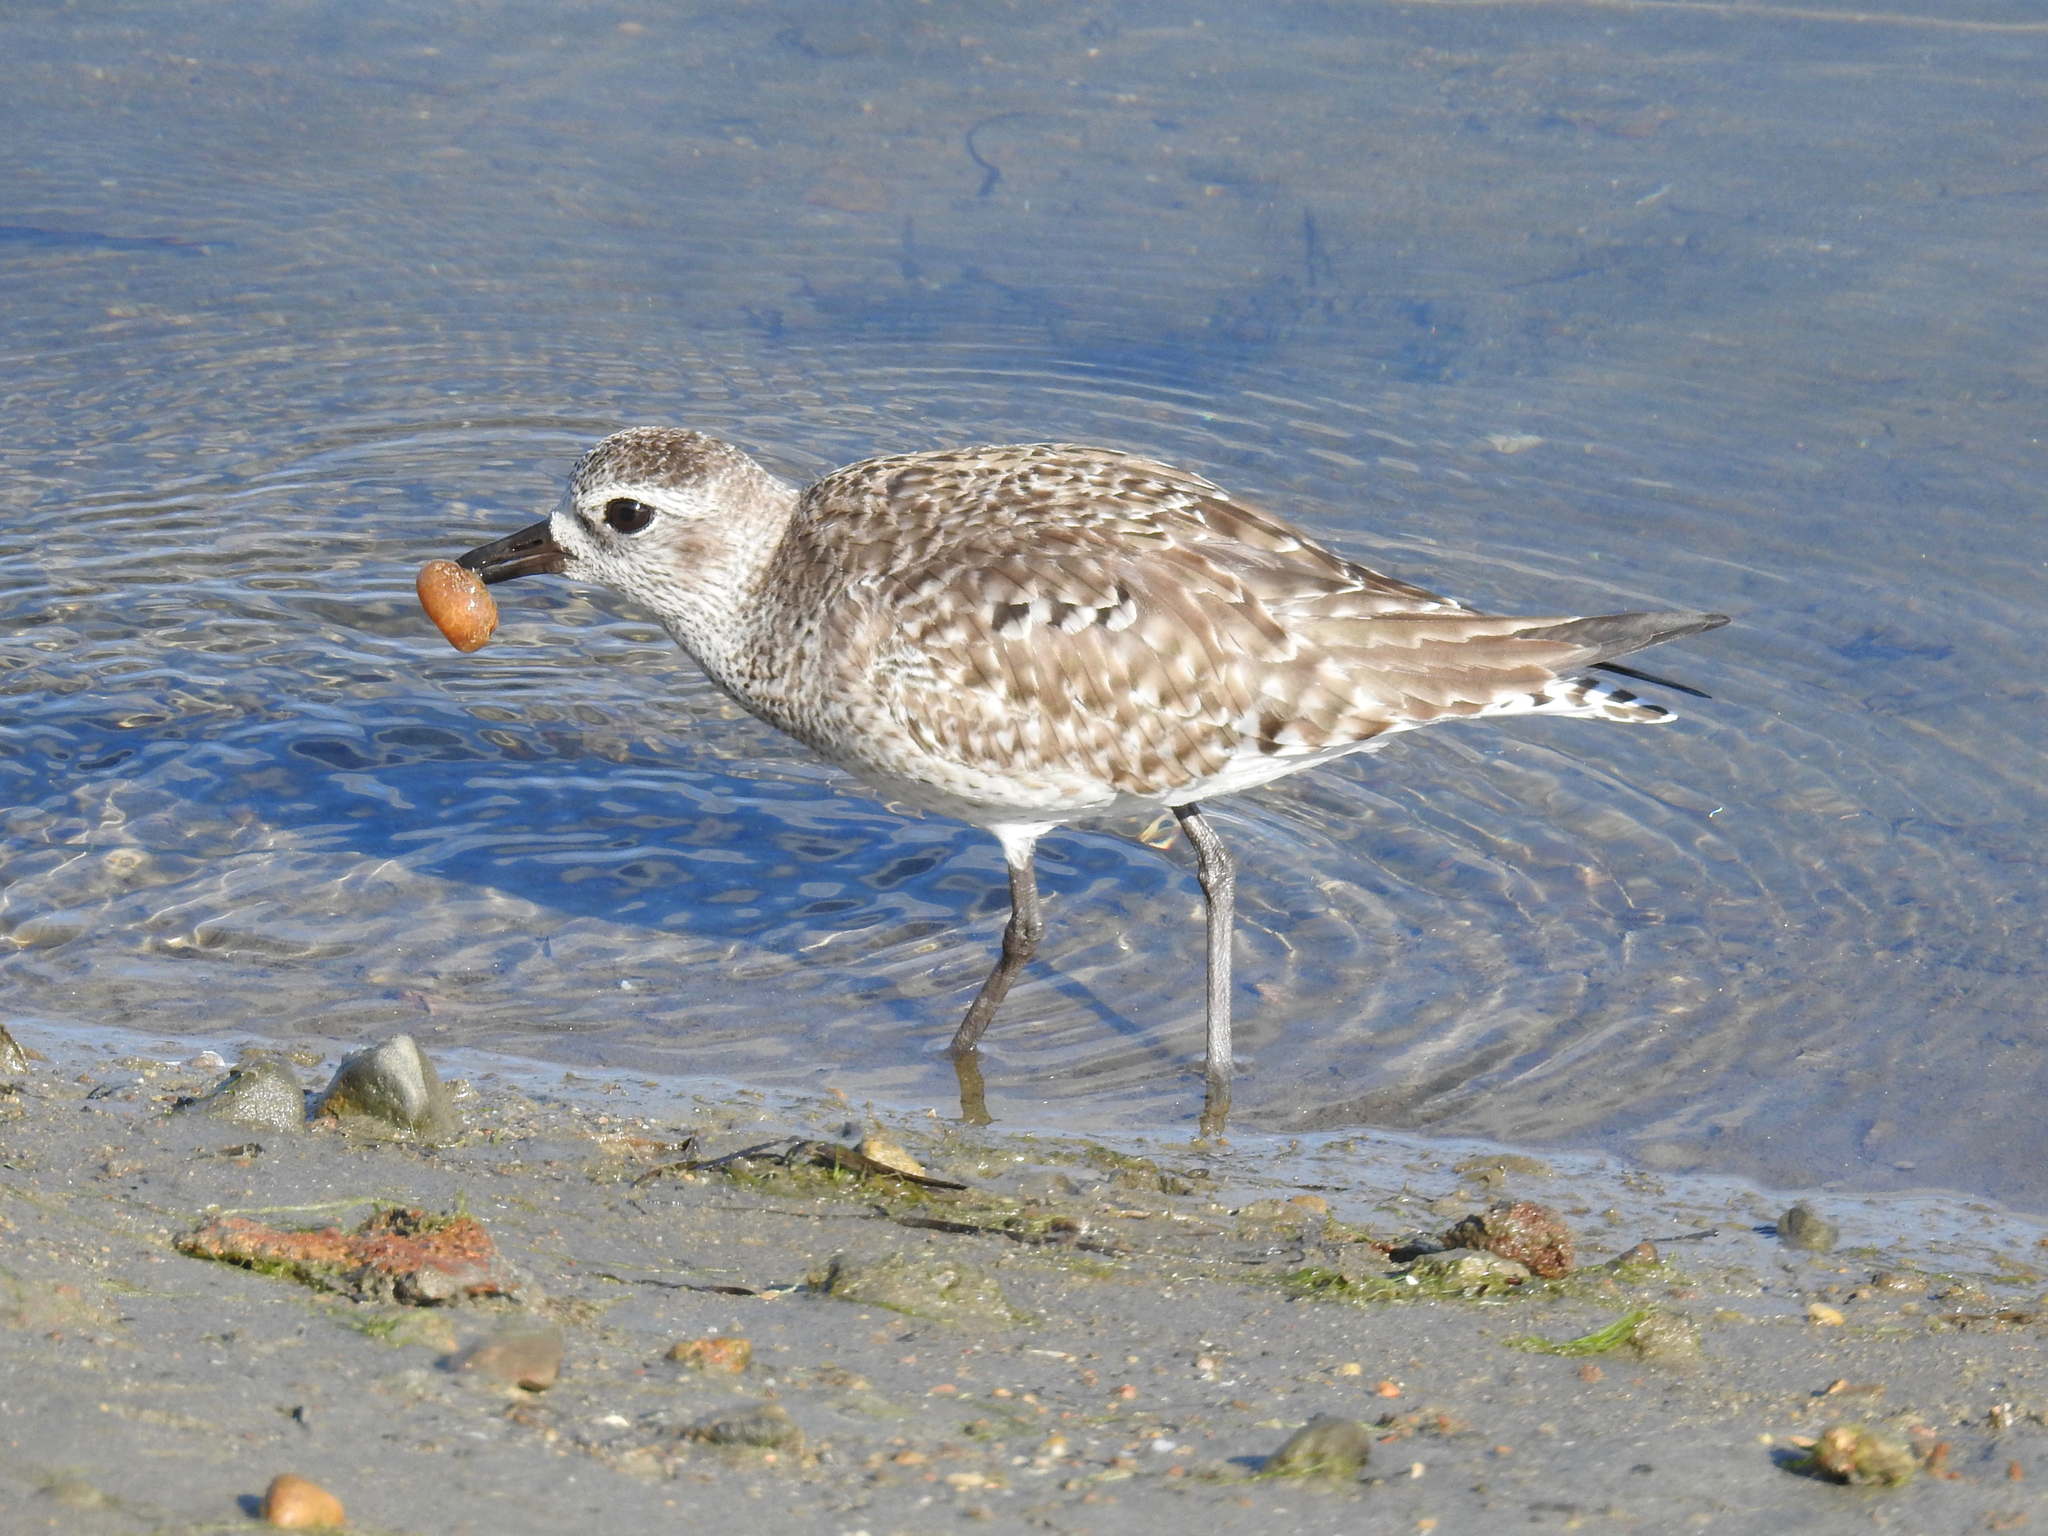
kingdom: Animalia
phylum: Chordata
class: Aves
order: Charadriiformes
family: Charadriidae
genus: Pluvialis
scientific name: Pluvialis squatarola
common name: Grey plover
